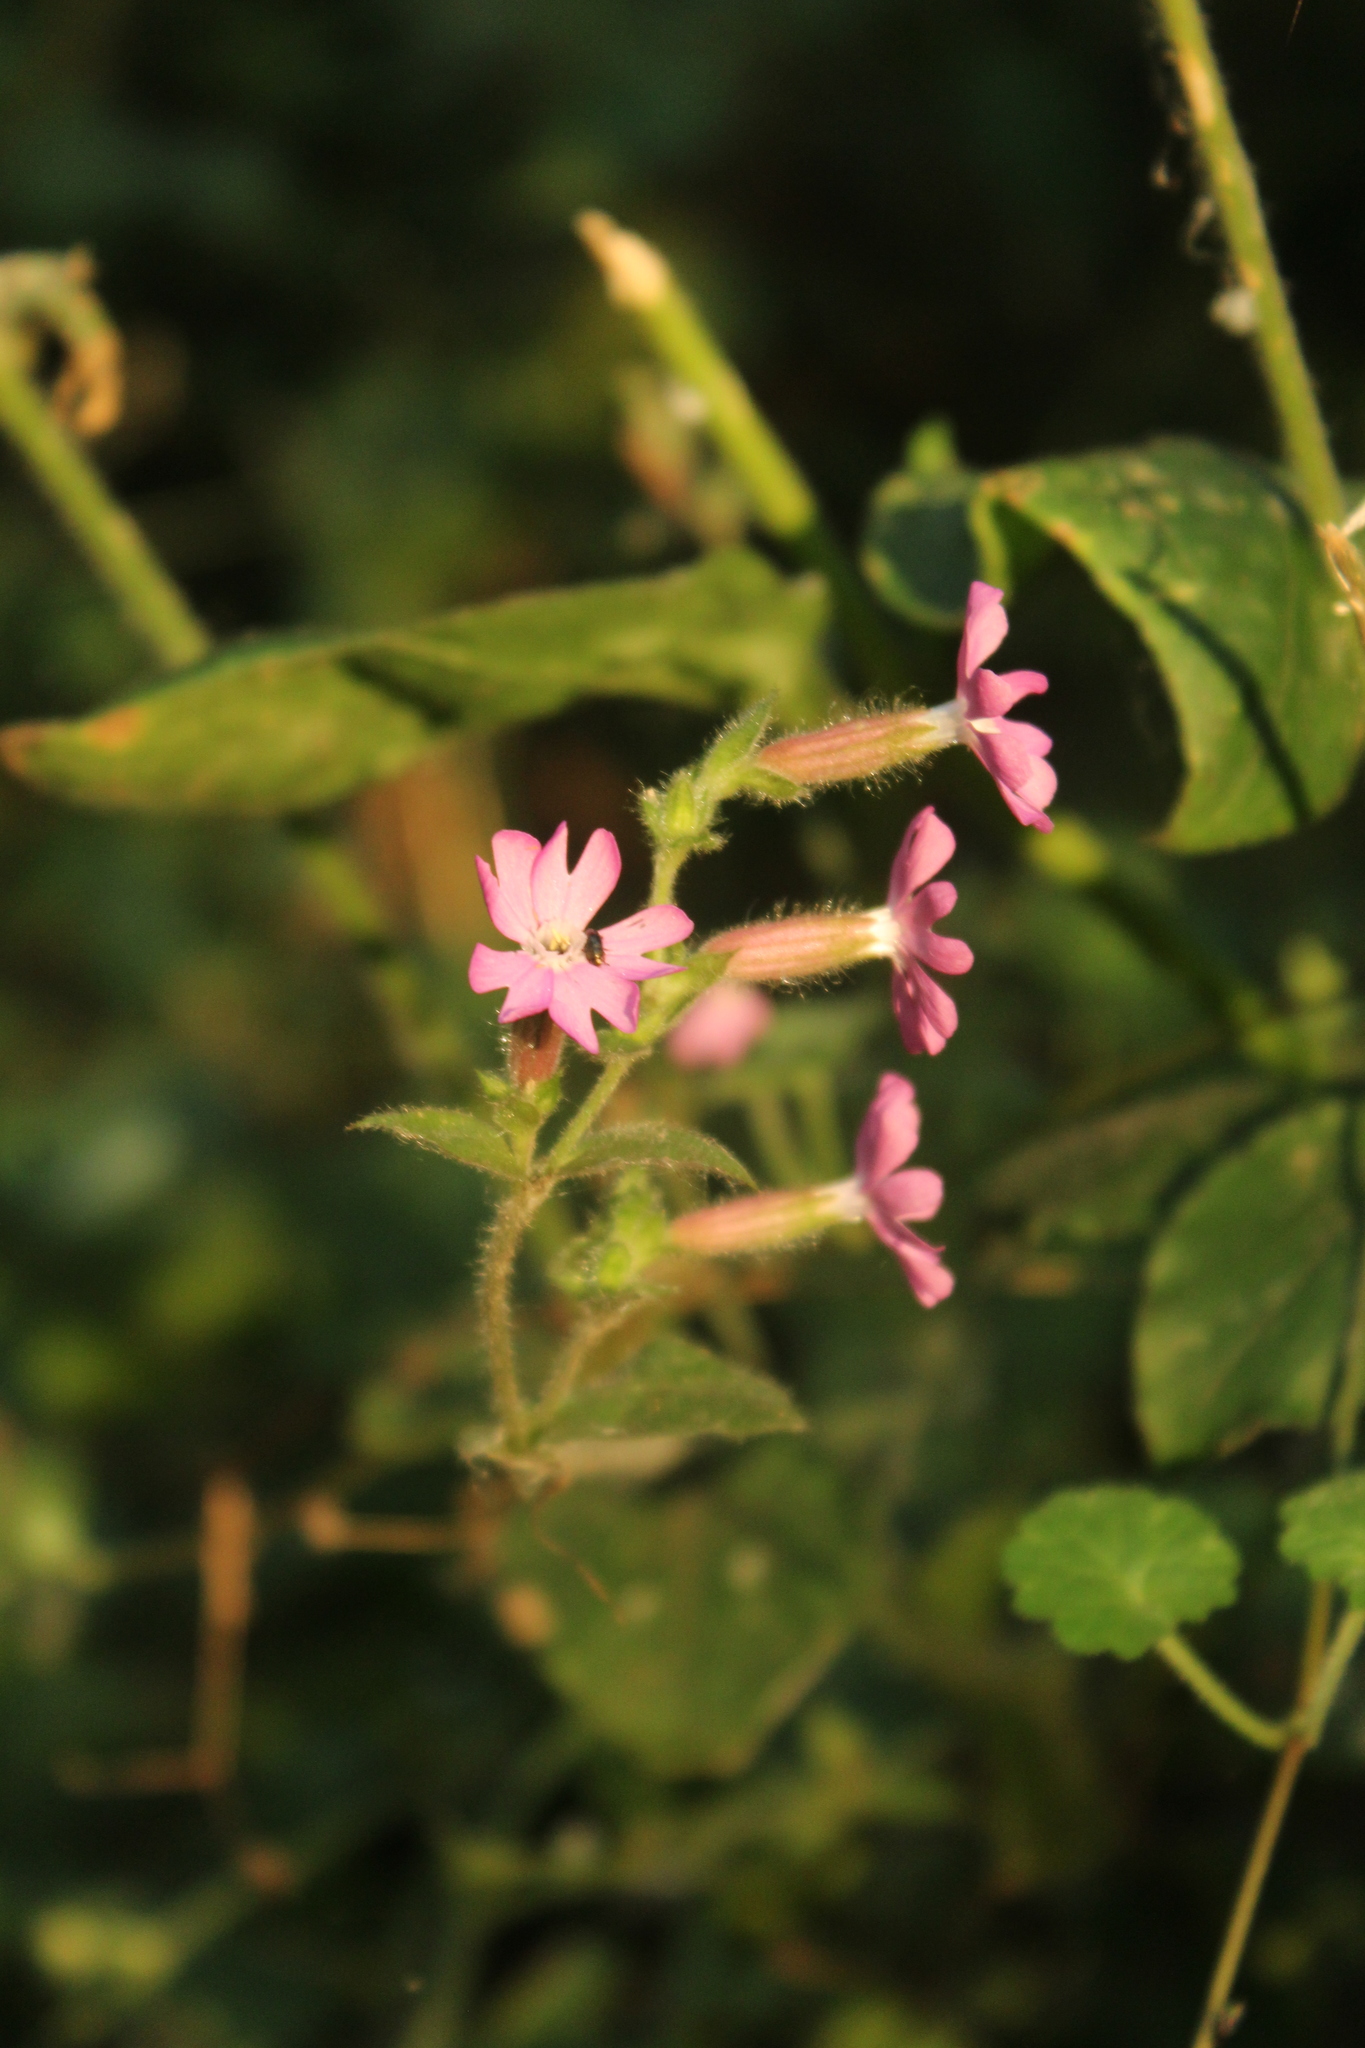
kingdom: Plantae
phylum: Tracheophyta
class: Magnoliopsida
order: Caryophyllales
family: Caryophyllaceae
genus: Silene
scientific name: Silene dioica
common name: Red campion
